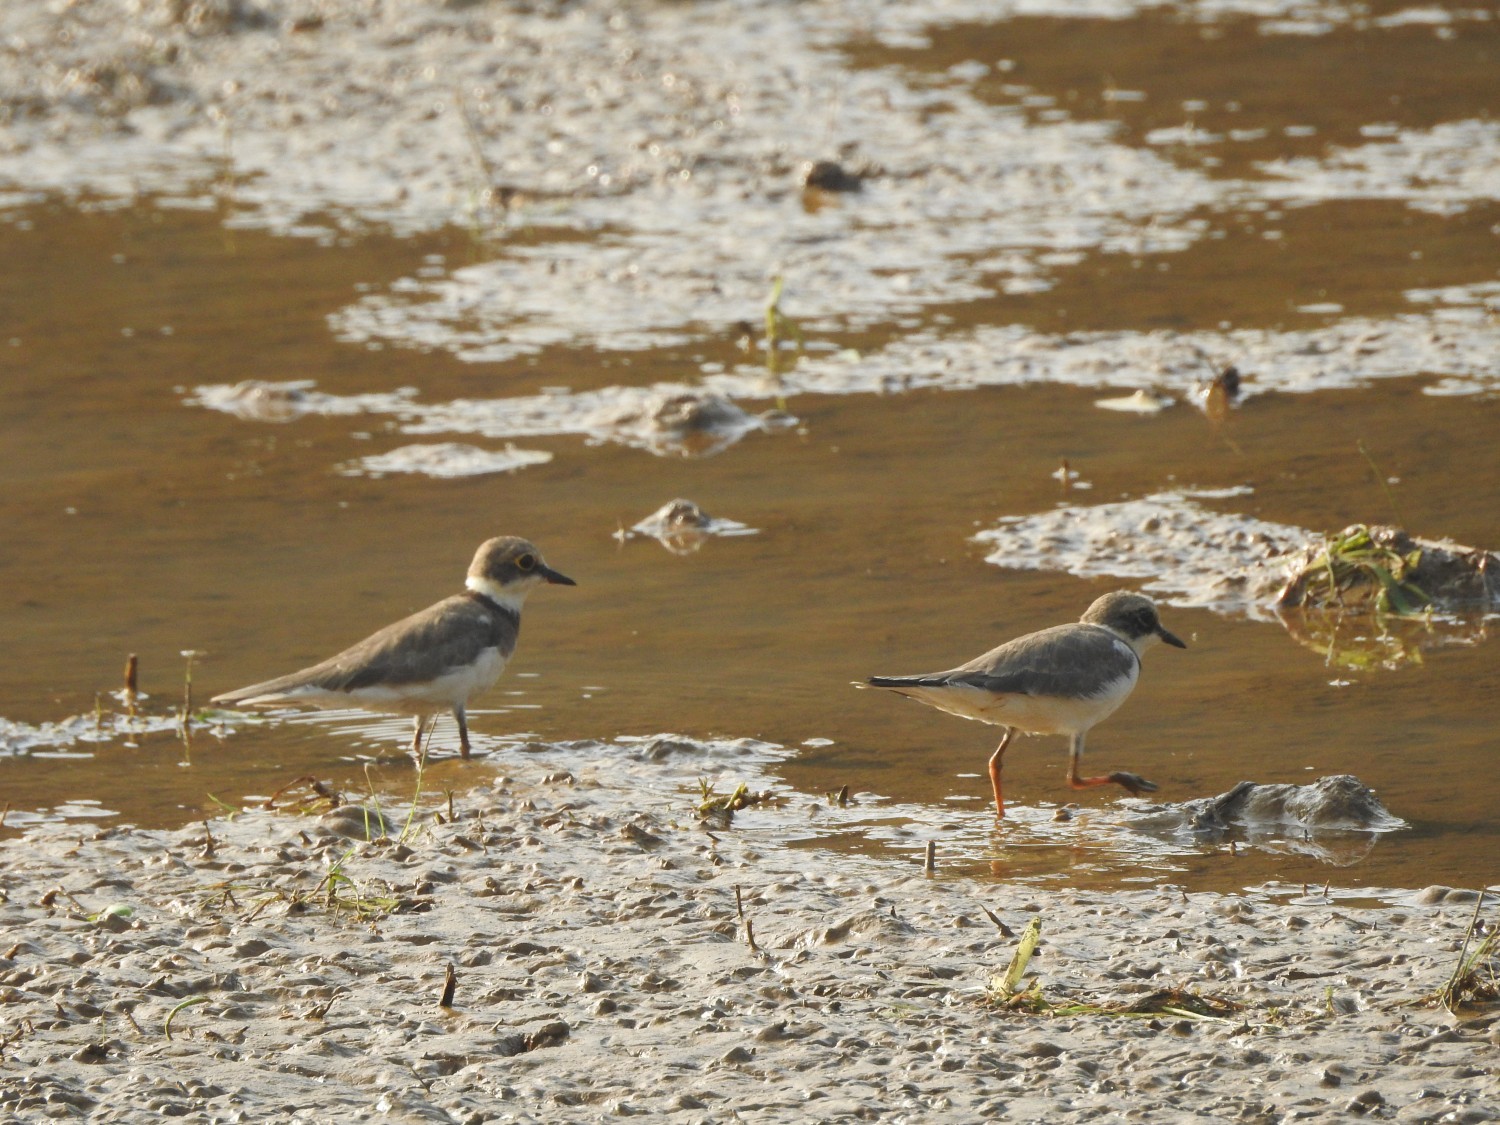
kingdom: Animalia
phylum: Chordata
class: Aves
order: Charadriiformes
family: Charadriidae
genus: Charadrius
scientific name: Charadrius dubius
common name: Little ringed plover
